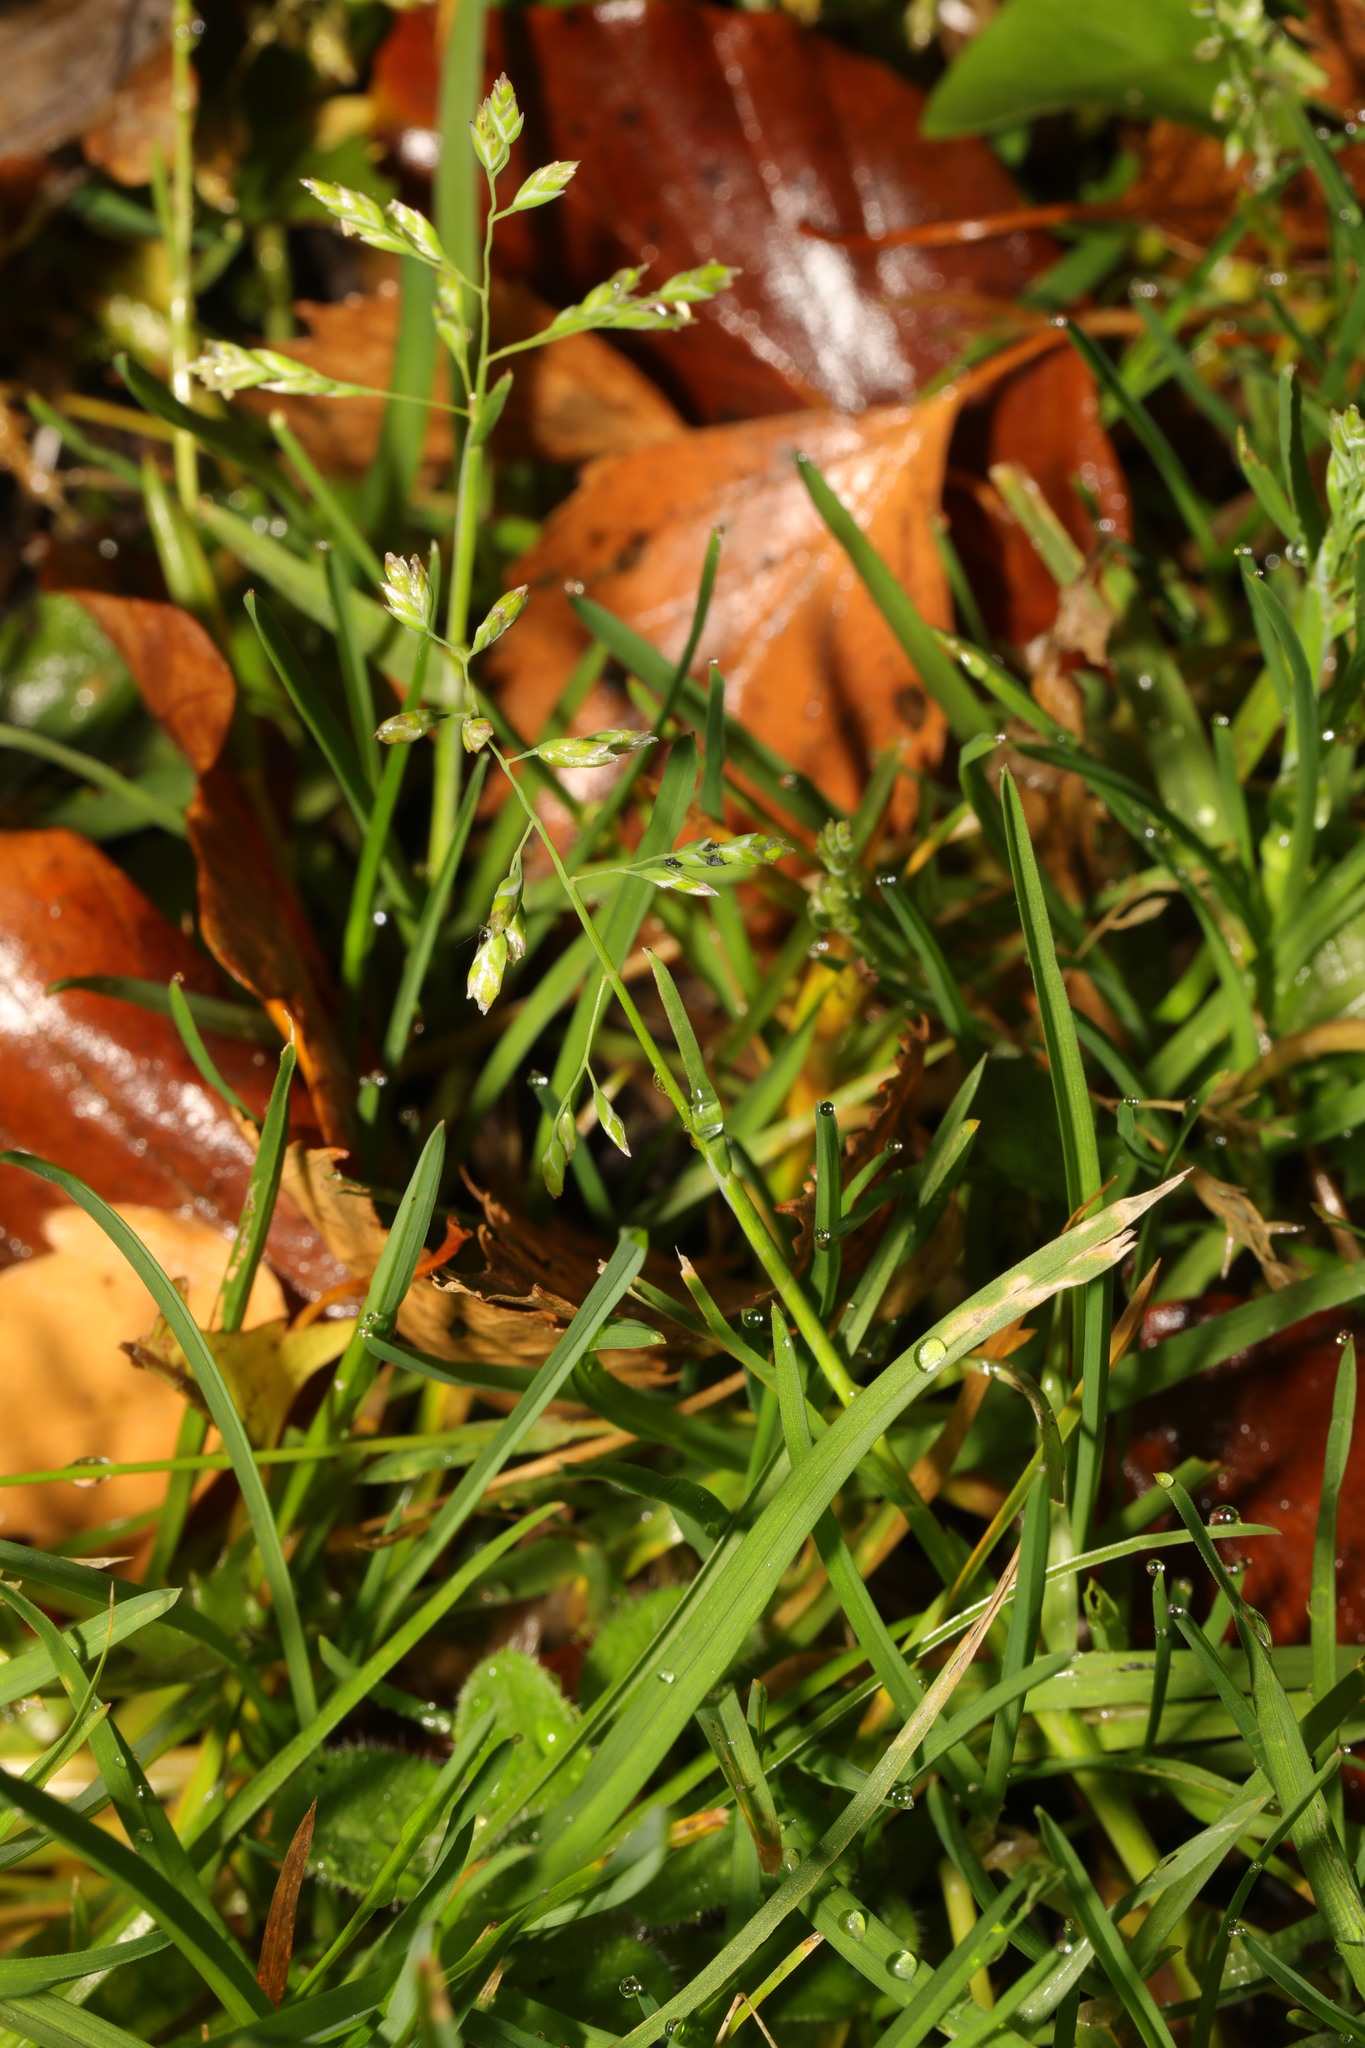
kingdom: Plantae
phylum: Tracheophyta
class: Liliopsida
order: Poales
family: Poaceae
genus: Poa
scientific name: Poa annua
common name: Annual bluegrass
